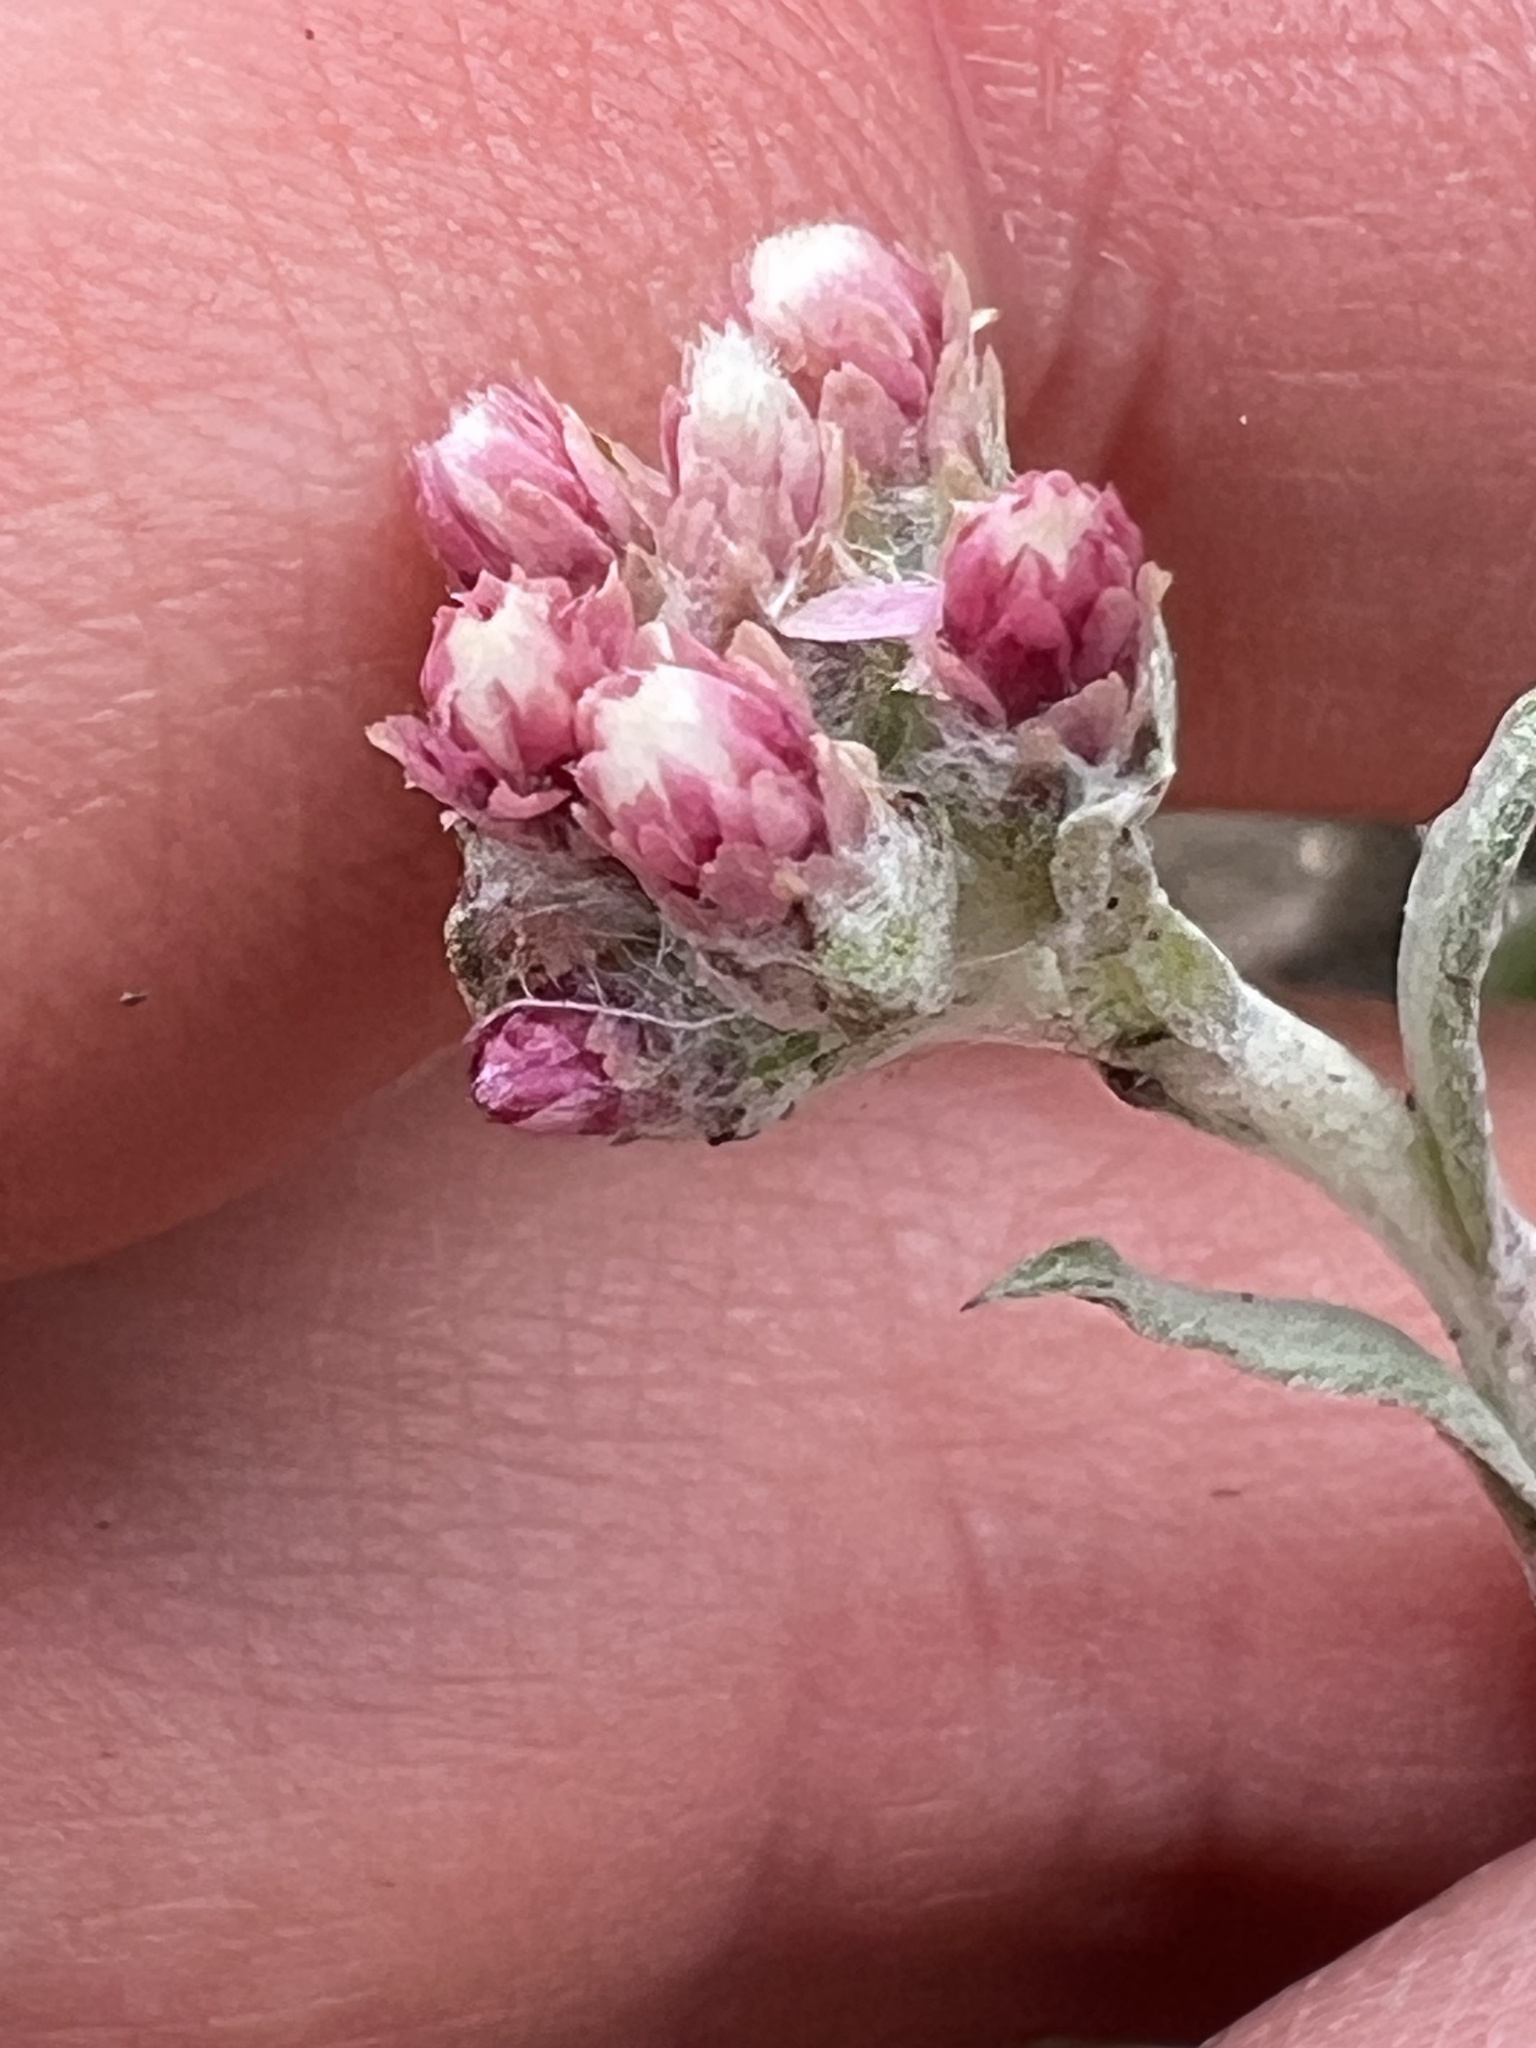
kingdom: Plantae
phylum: Tracheophyta
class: Magnoliopsida
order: Asterales
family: Asteraceae
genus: Antennaria
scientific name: Antennaria rosea
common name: Rosy pussytoes
